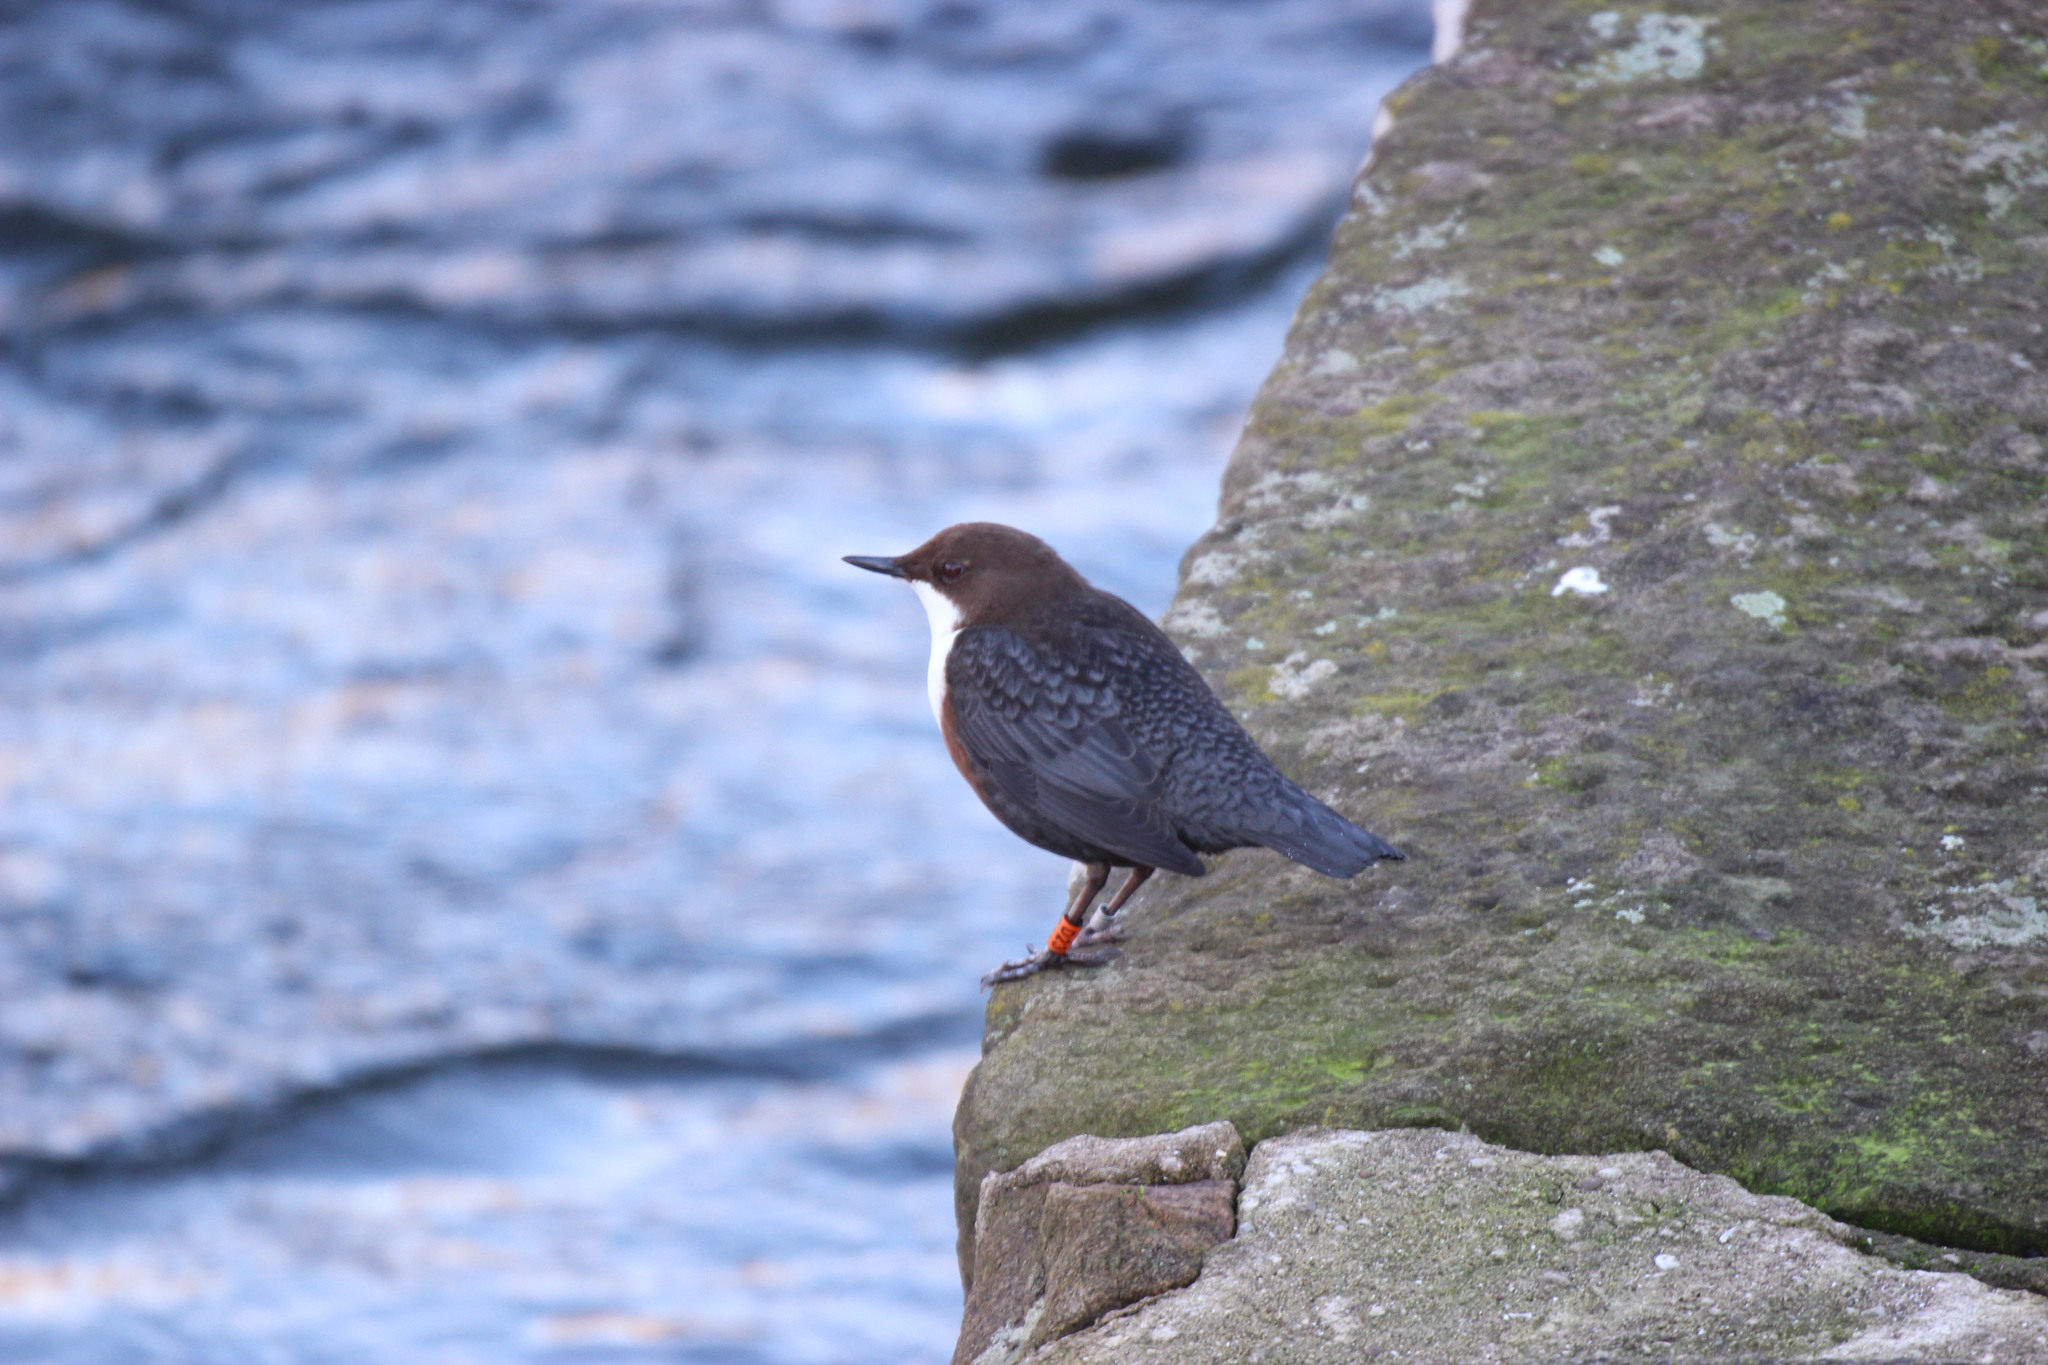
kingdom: Animalia
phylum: Chordata
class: Aves
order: Passeriformes
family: Cinclidae
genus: Cinclus
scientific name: Cinclus cinclus
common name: White-throated dipper
